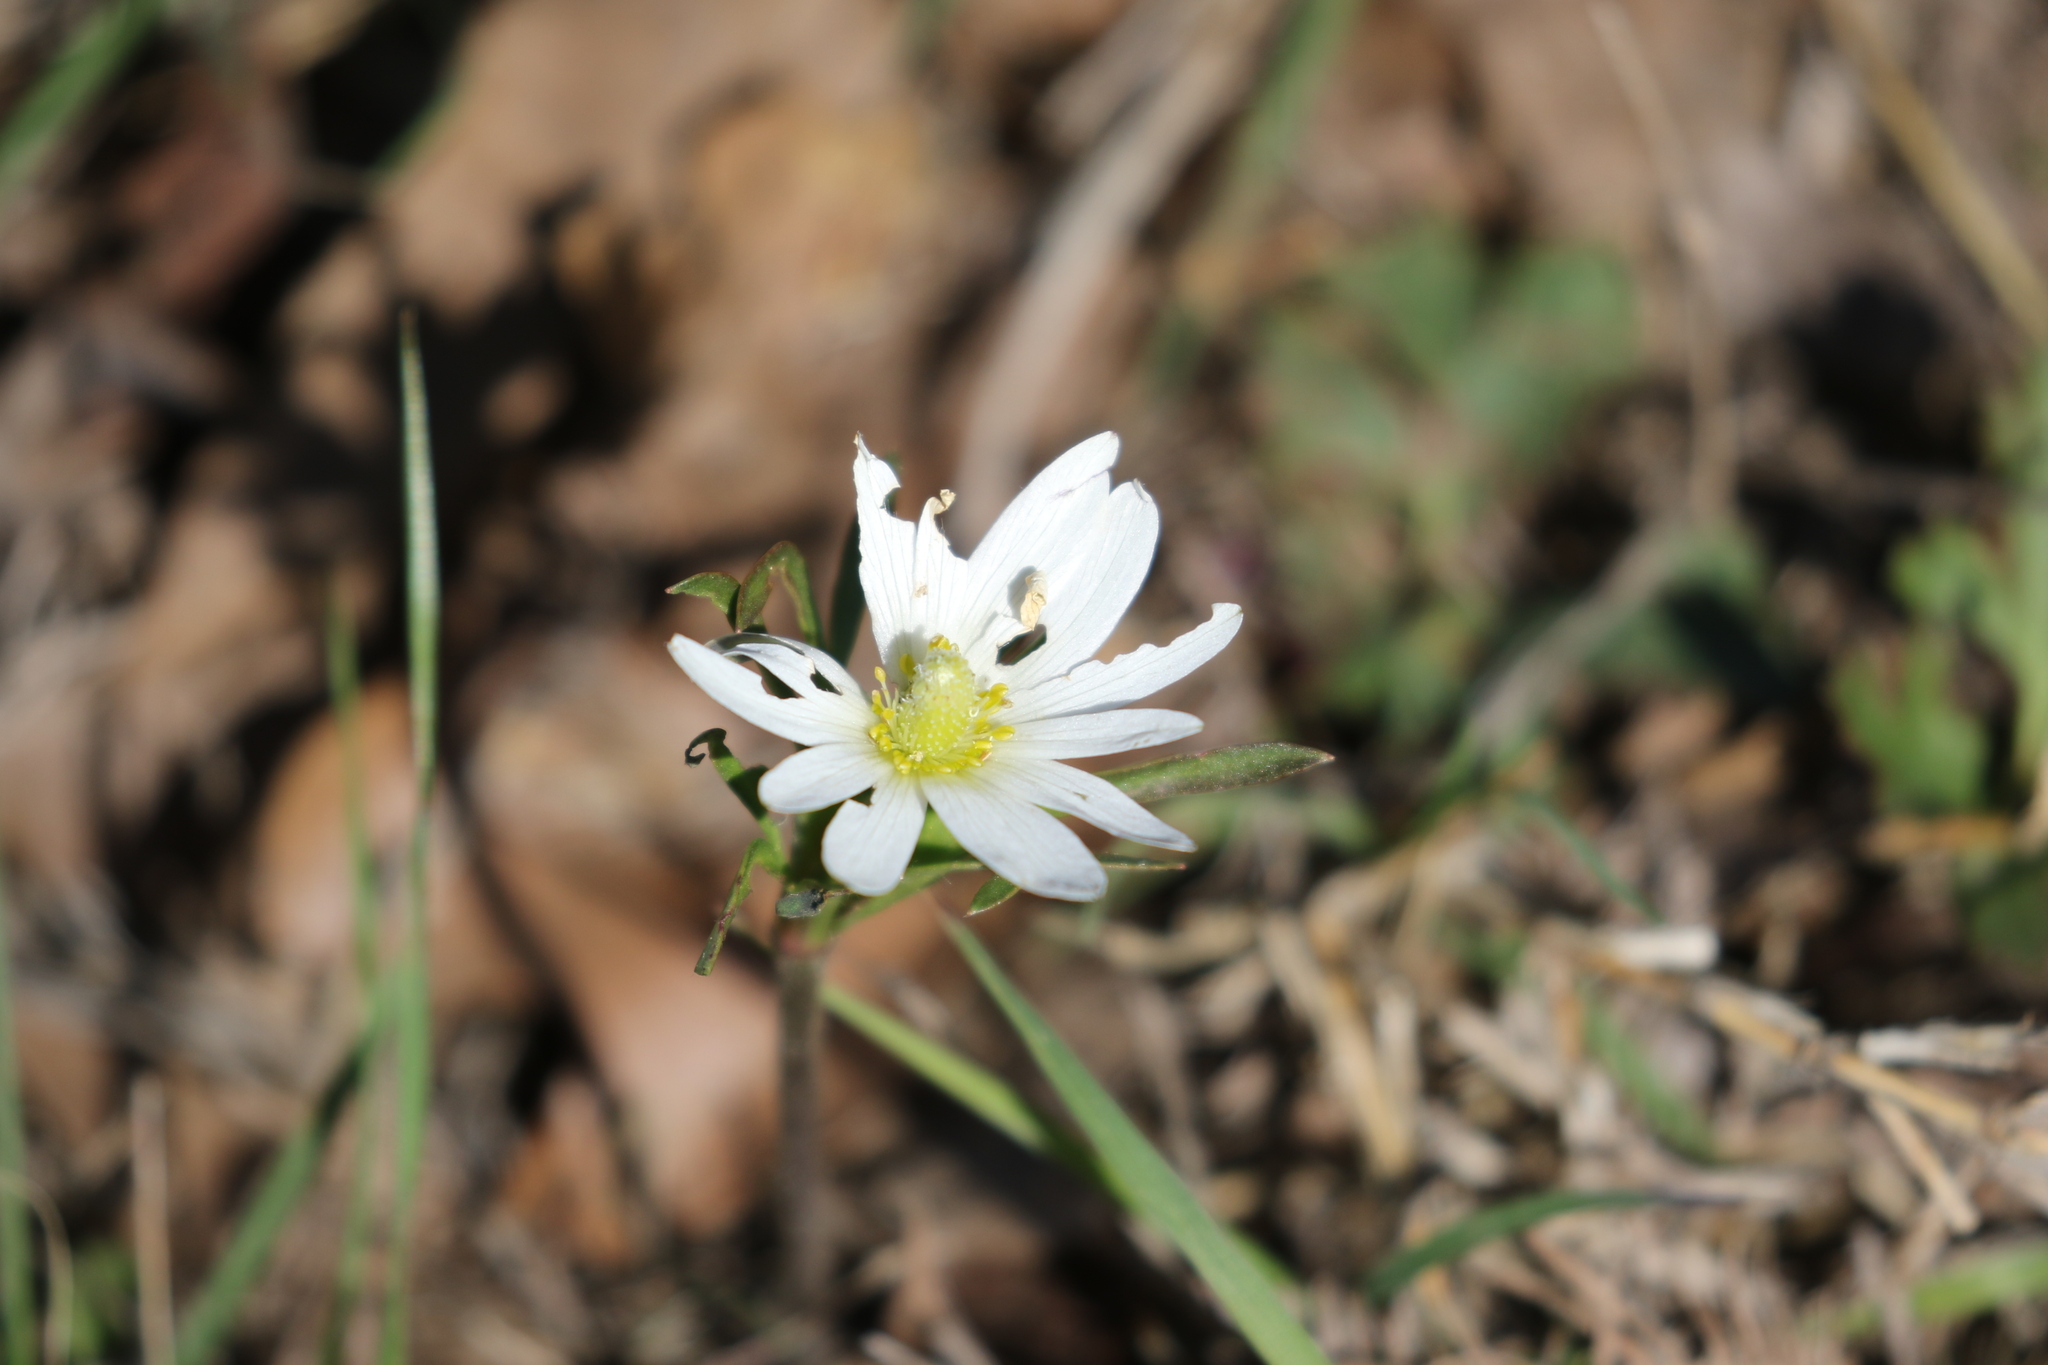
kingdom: Plantae
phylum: Tracheophyta
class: Magnoliopsida
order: Ranunculales
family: Ranunculaceae
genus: Anemone
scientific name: Anemone berlandieri
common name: Ten-petal anemone
